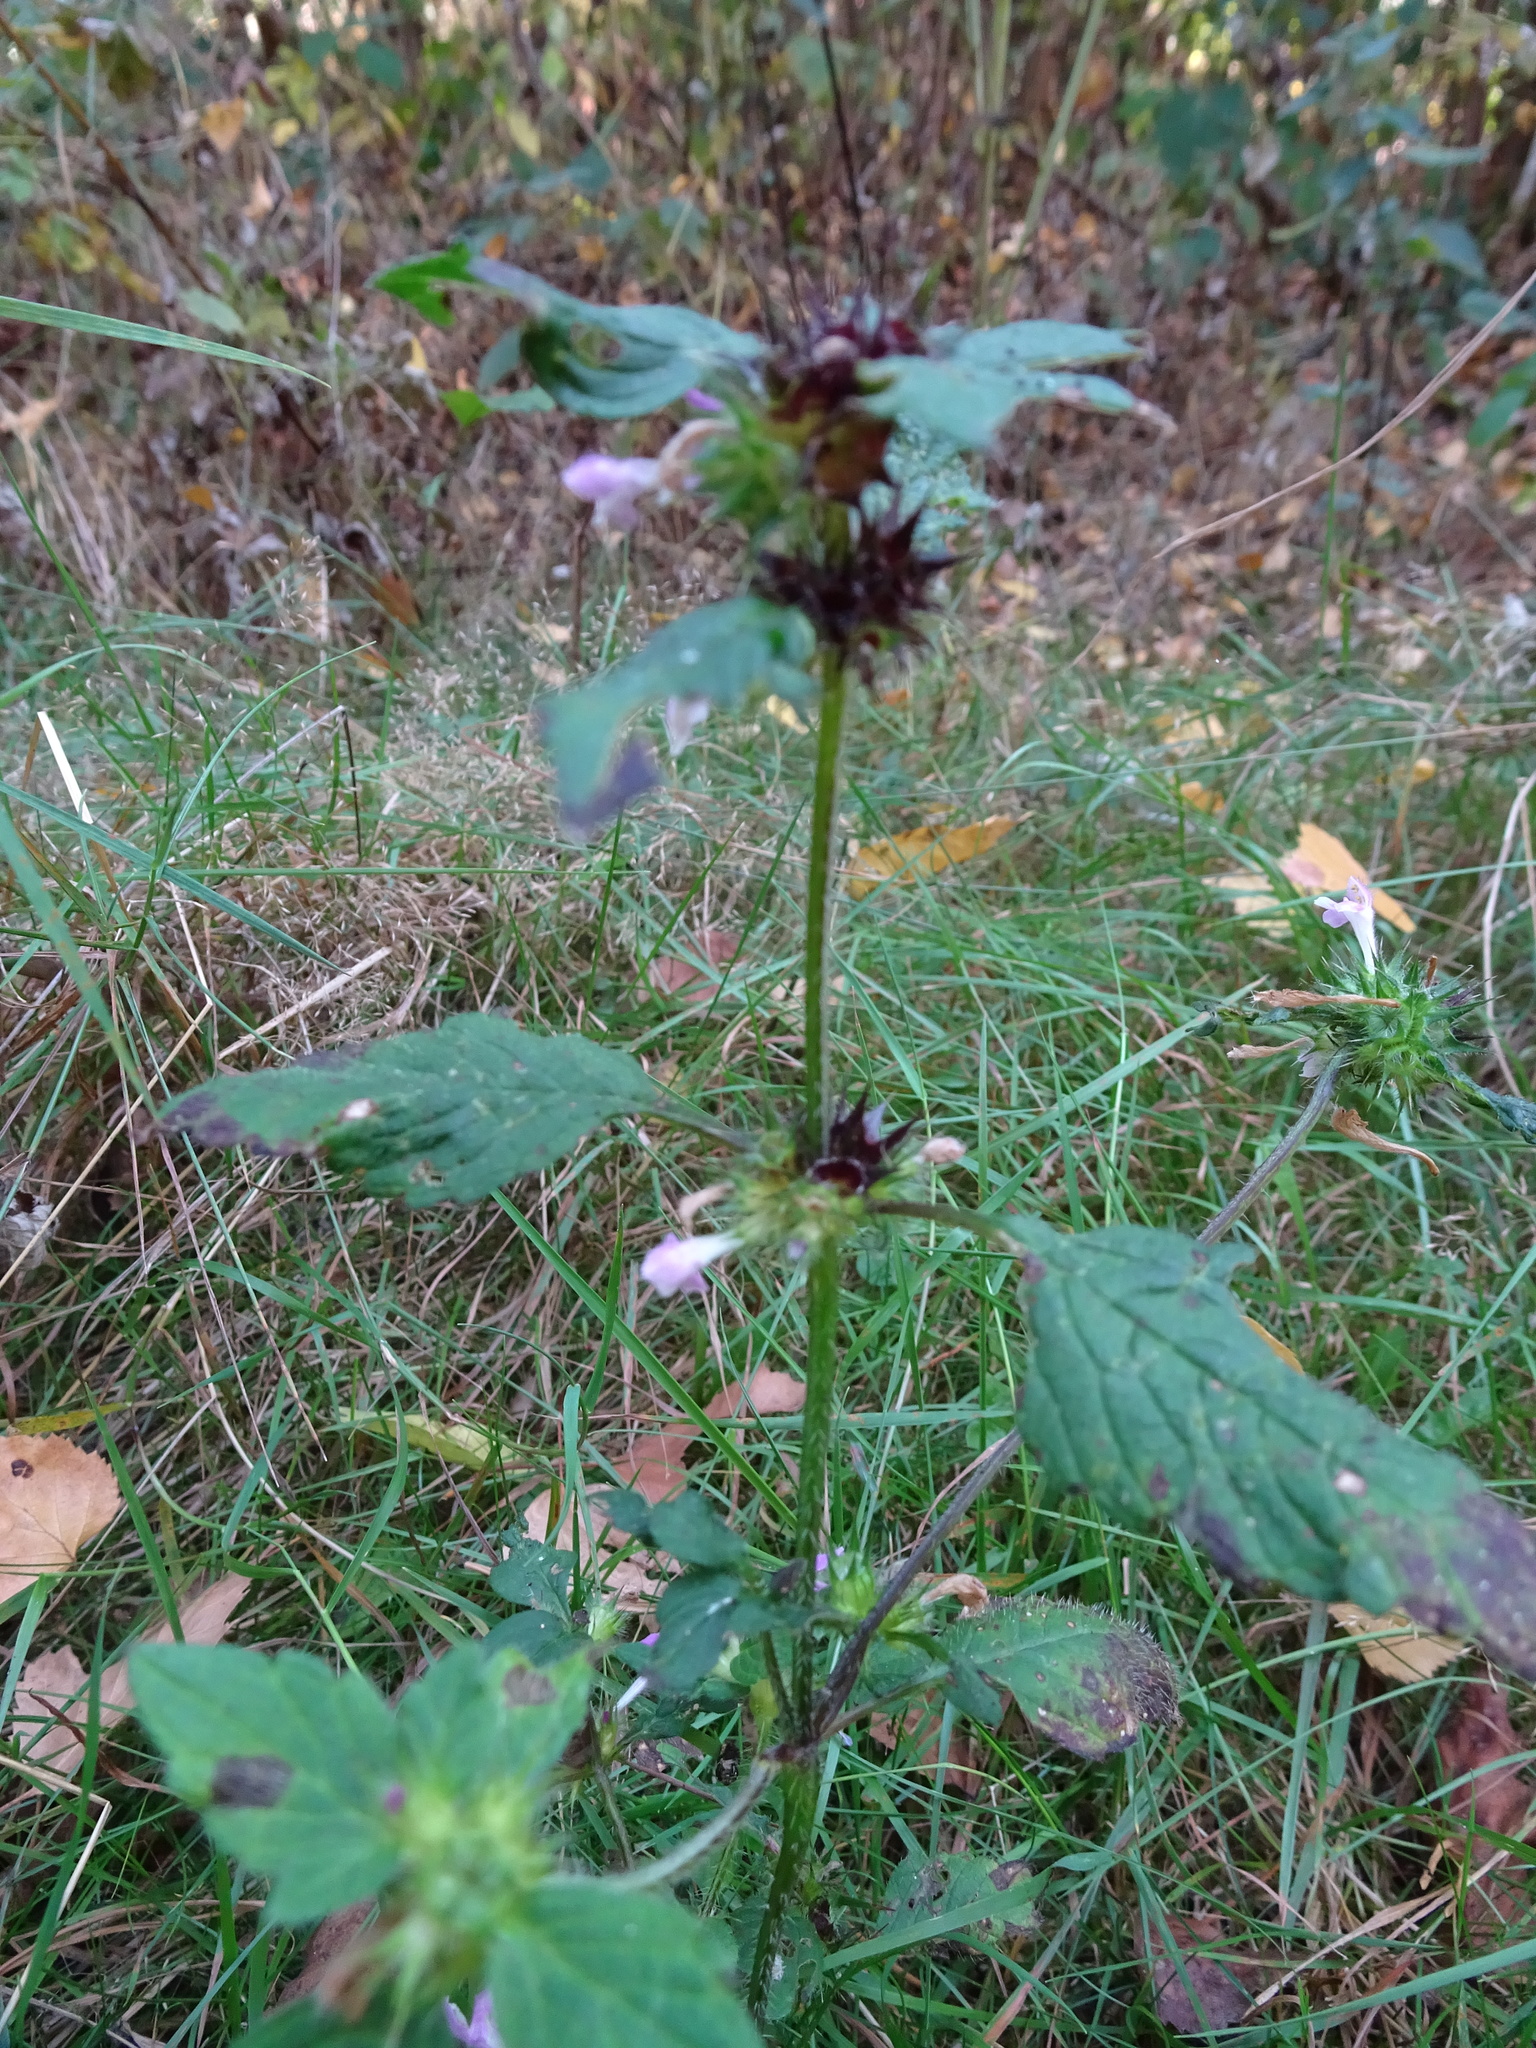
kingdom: Plantae
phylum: Tracheophyta
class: Magnoliopsida
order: Lamiales
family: Lamiaceae
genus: Galeopsis
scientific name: Galeopsis tetrahit
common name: Common hemp-nettle
